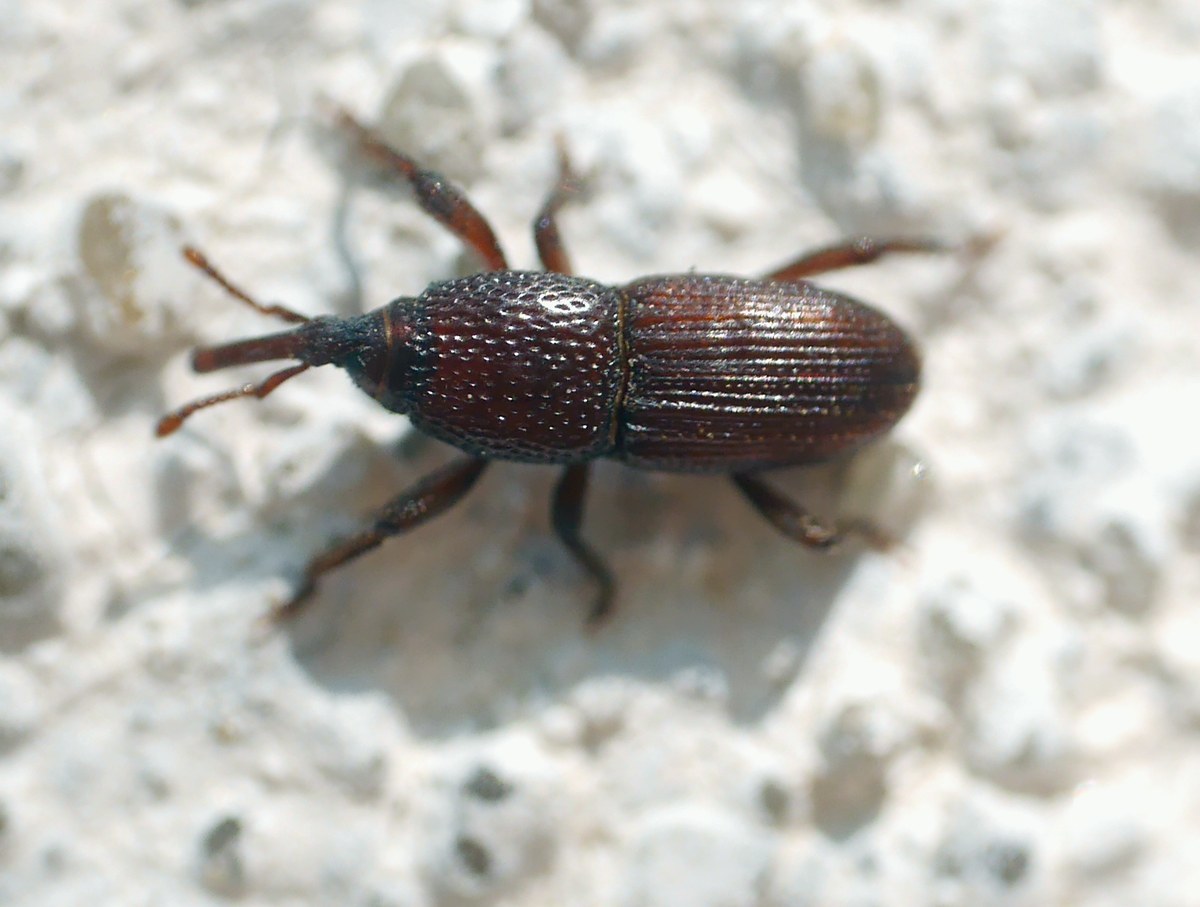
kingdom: Animalia
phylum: Arthropoda
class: Insecta
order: Coleoptera
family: Dryophthoridae
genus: Sitophilus
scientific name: Sitophilus granarius
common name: Granary weevil
